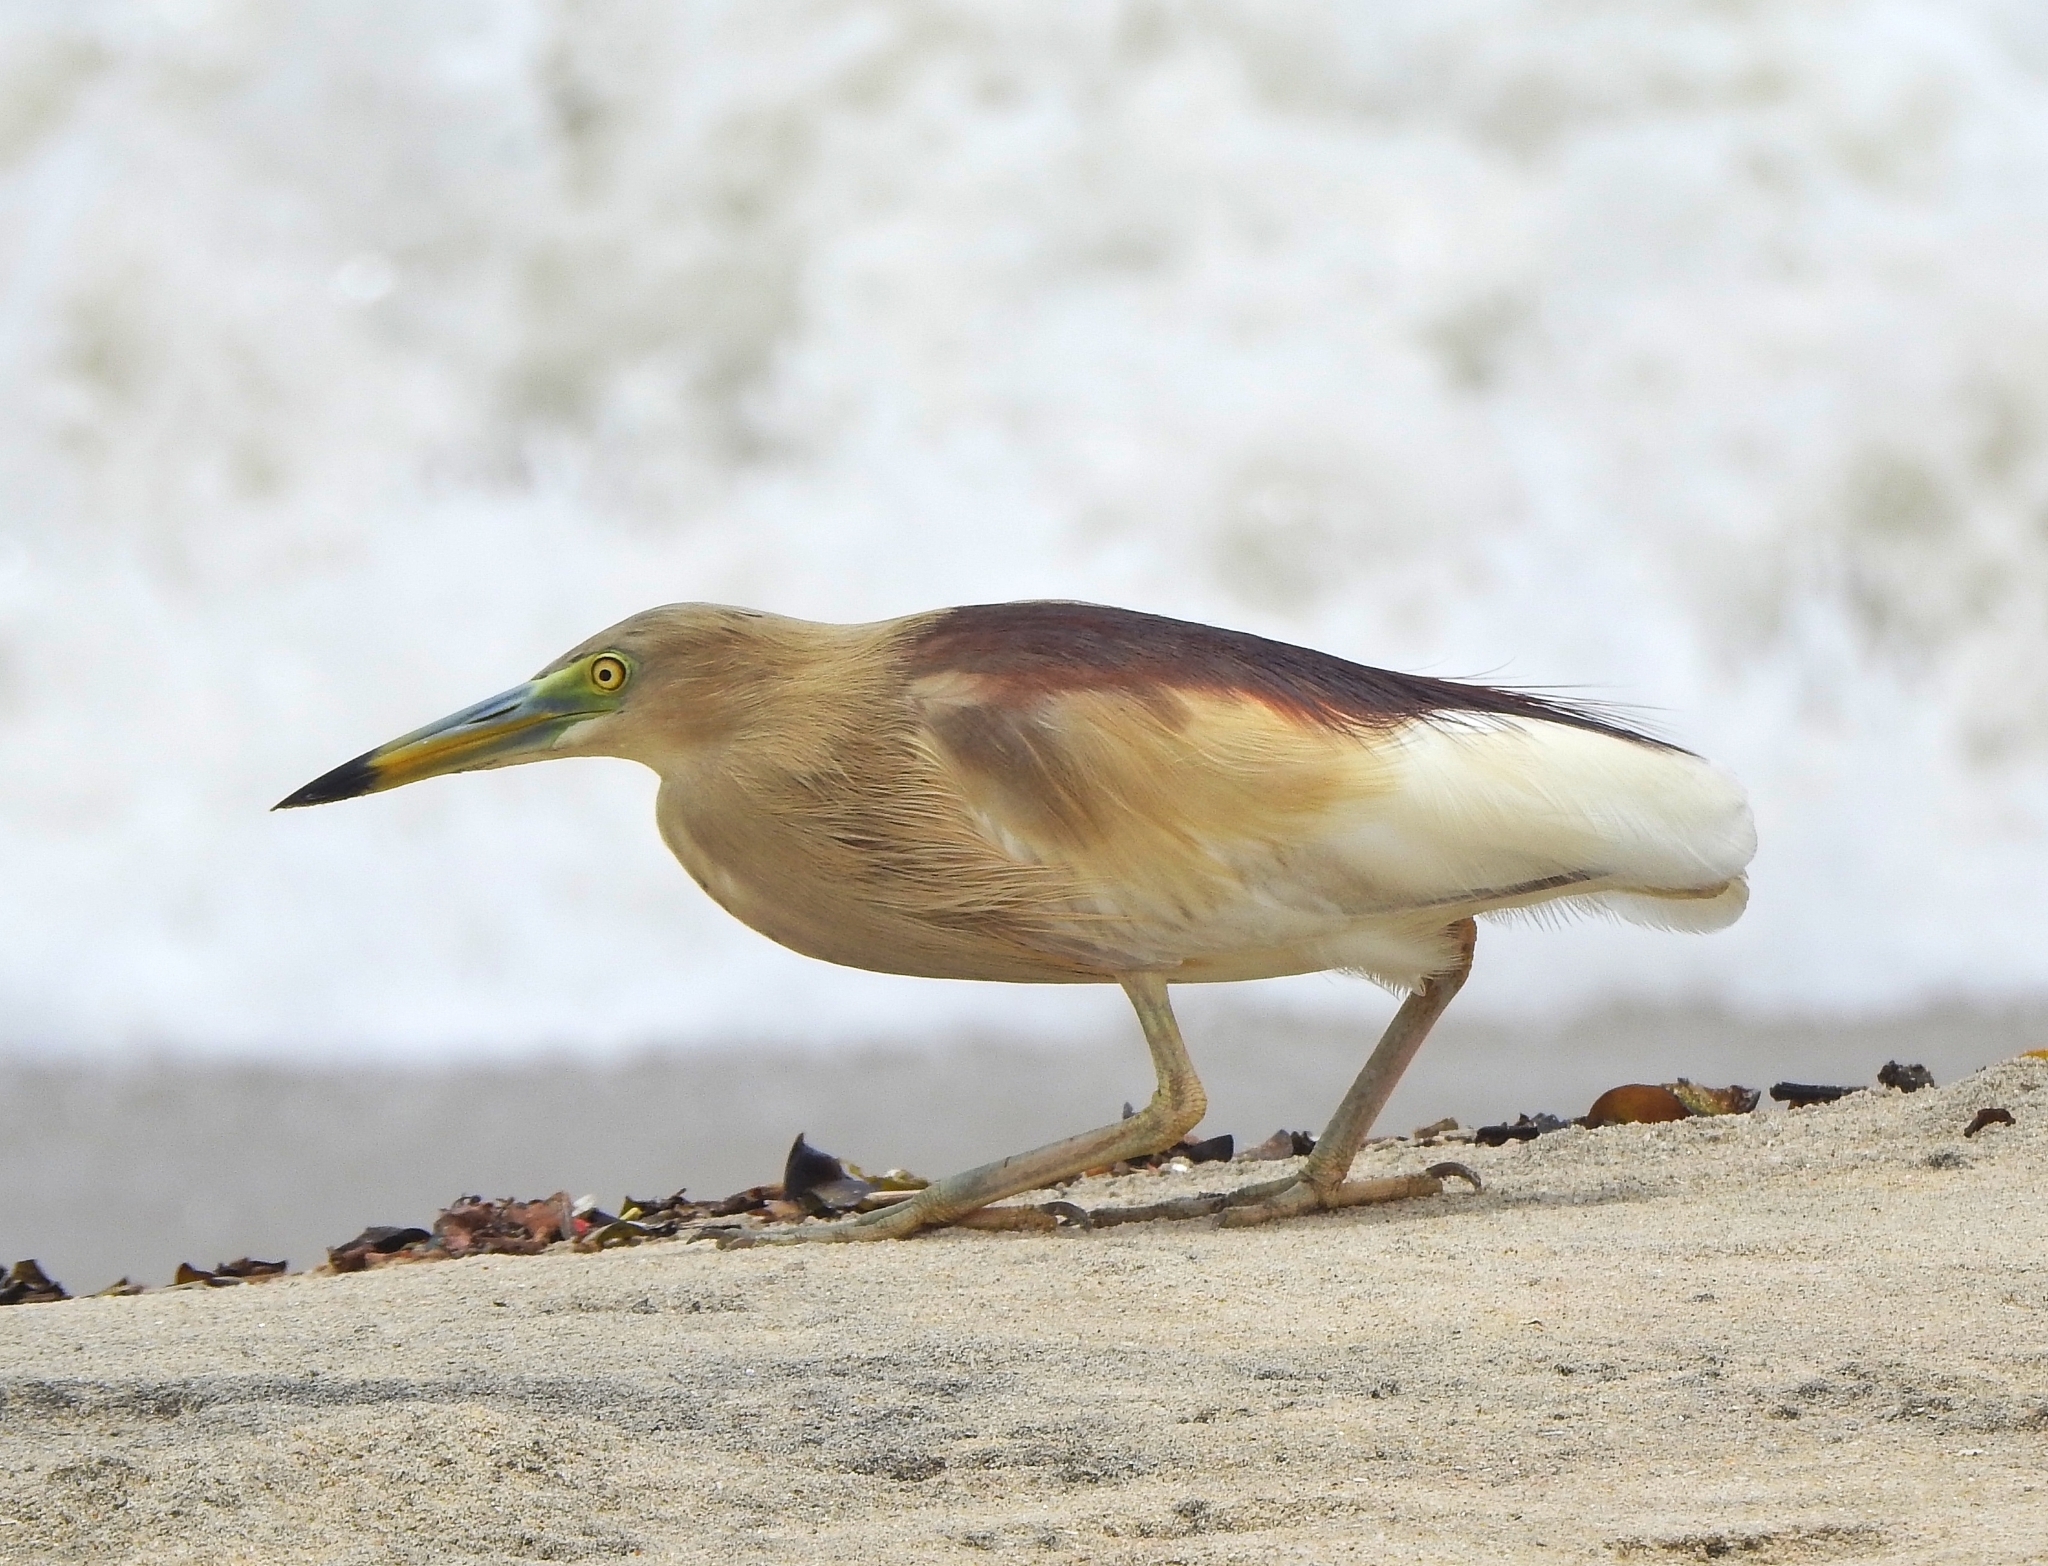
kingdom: Animalia
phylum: Chordata
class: Aves
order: Pelecaniformes
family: Ardeidae
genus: Ardeola
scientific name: Ardeola grayii
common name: Indian pond heron
